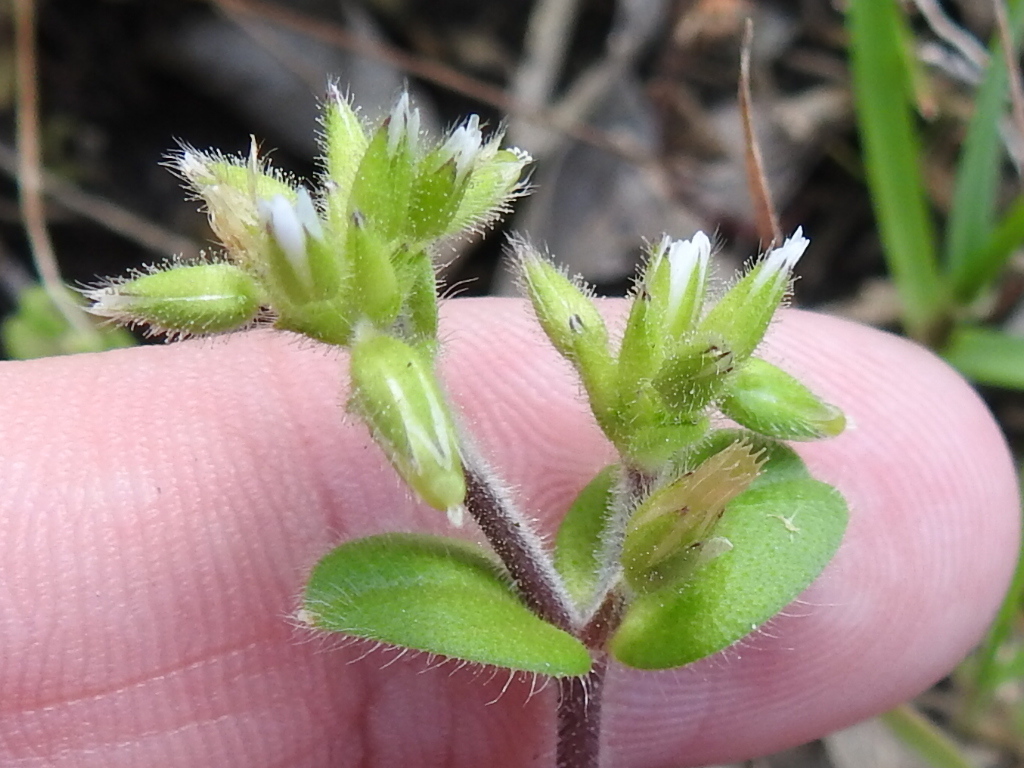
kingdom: Plantae
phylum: Tracheophyta
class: Magnoliopsida
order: Caryophyllales
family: Caryophyllaceae
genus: Cerastium
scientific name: Cerastium glomeratum
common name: Sticky chickweed
